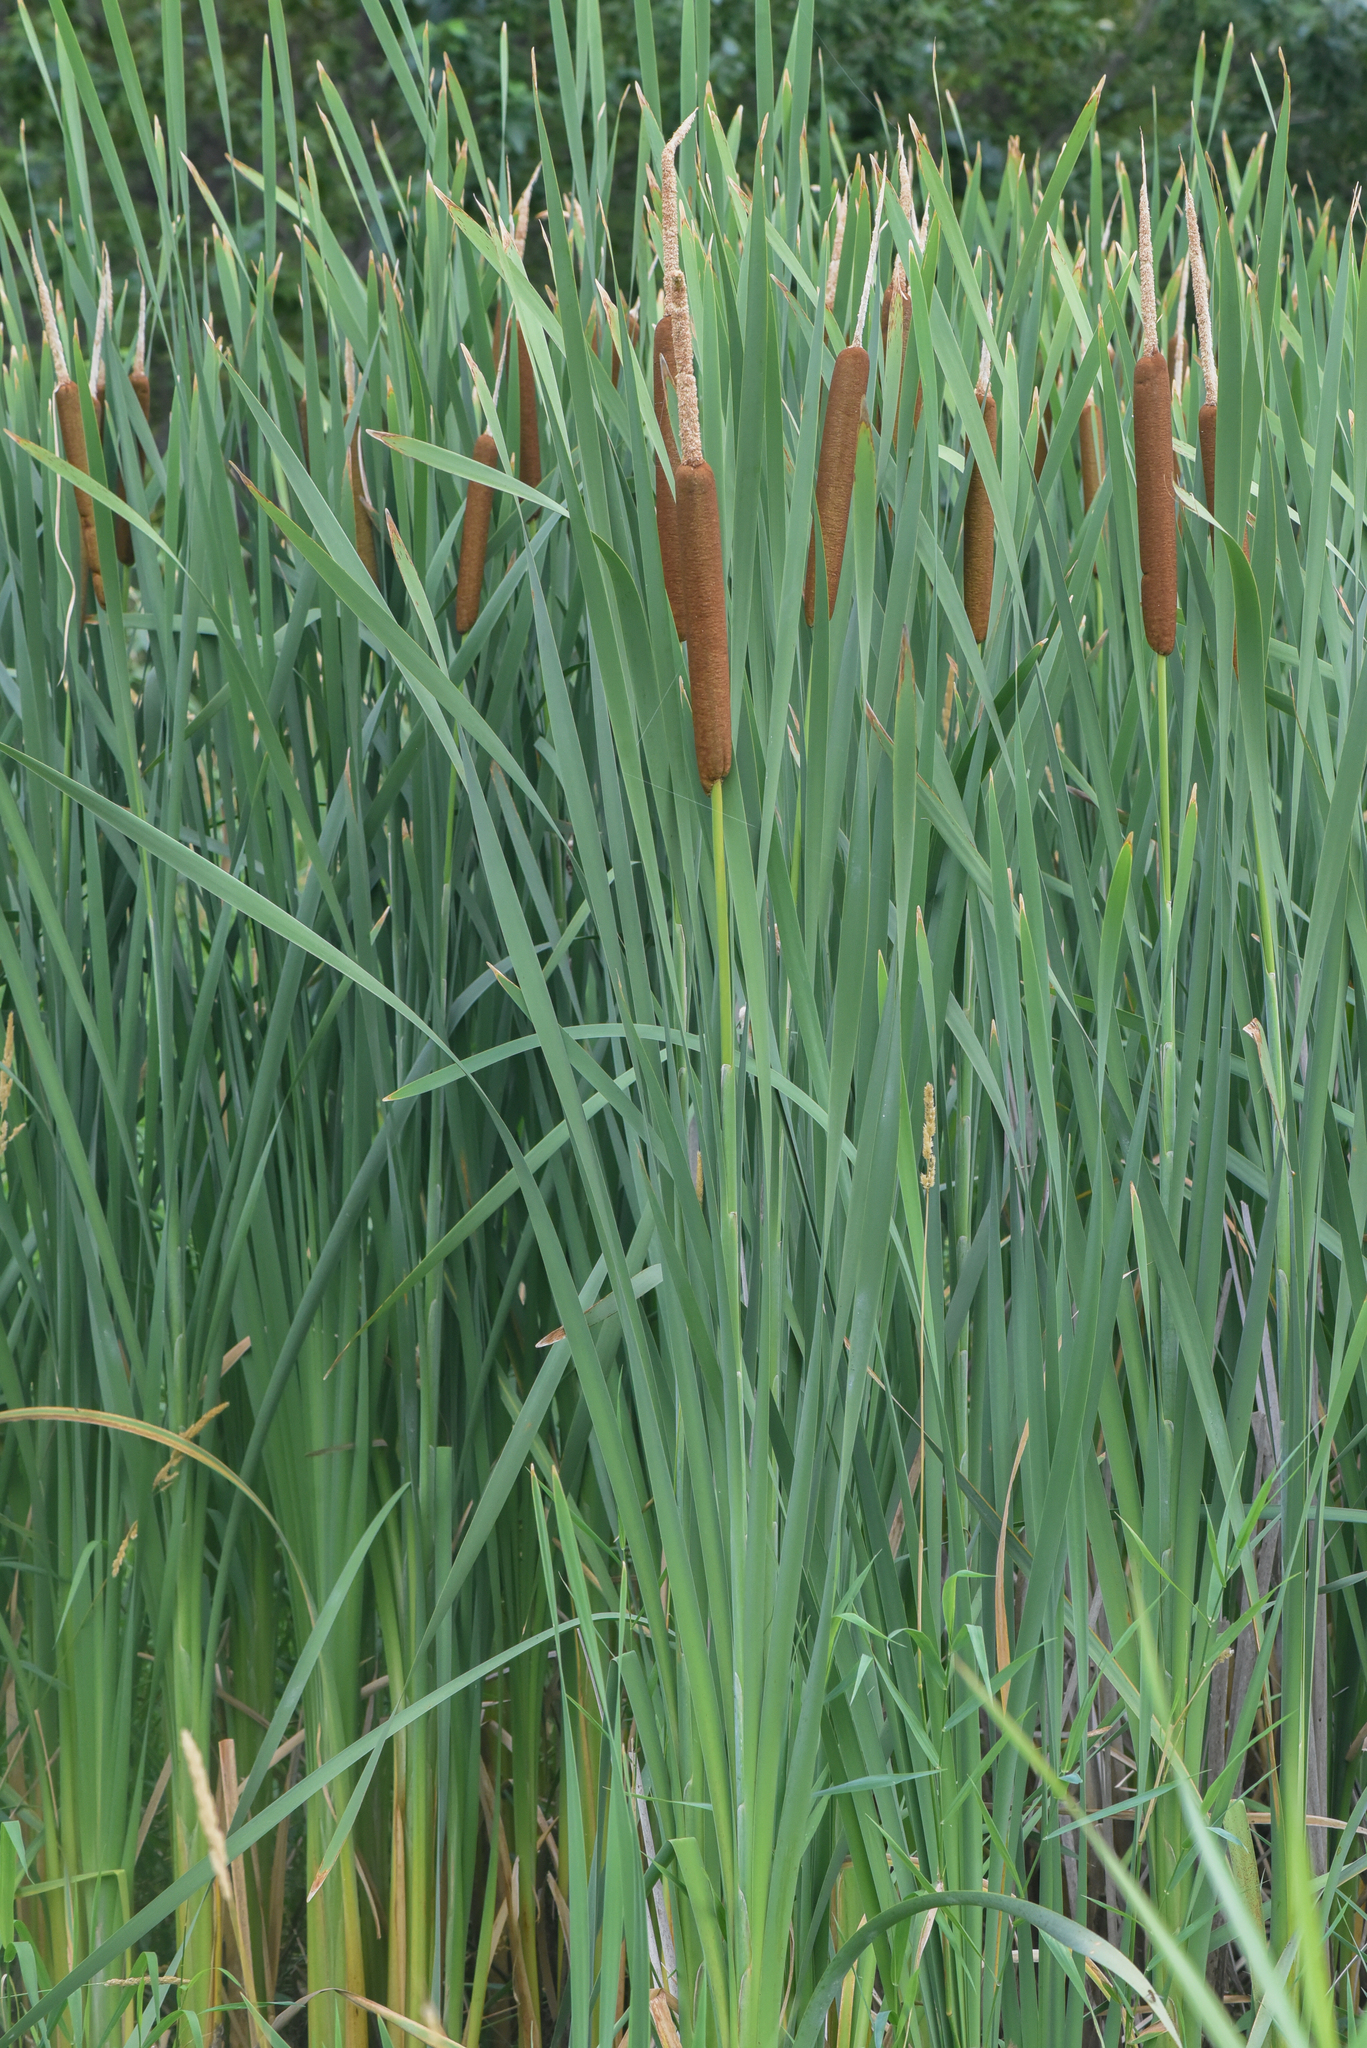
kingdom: Plantae
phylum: Tracheophyta
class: Liliopsida
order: Poales
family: Typhaceae
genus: Typha
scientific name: Typha latifolia
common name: Broadleaf cattail
